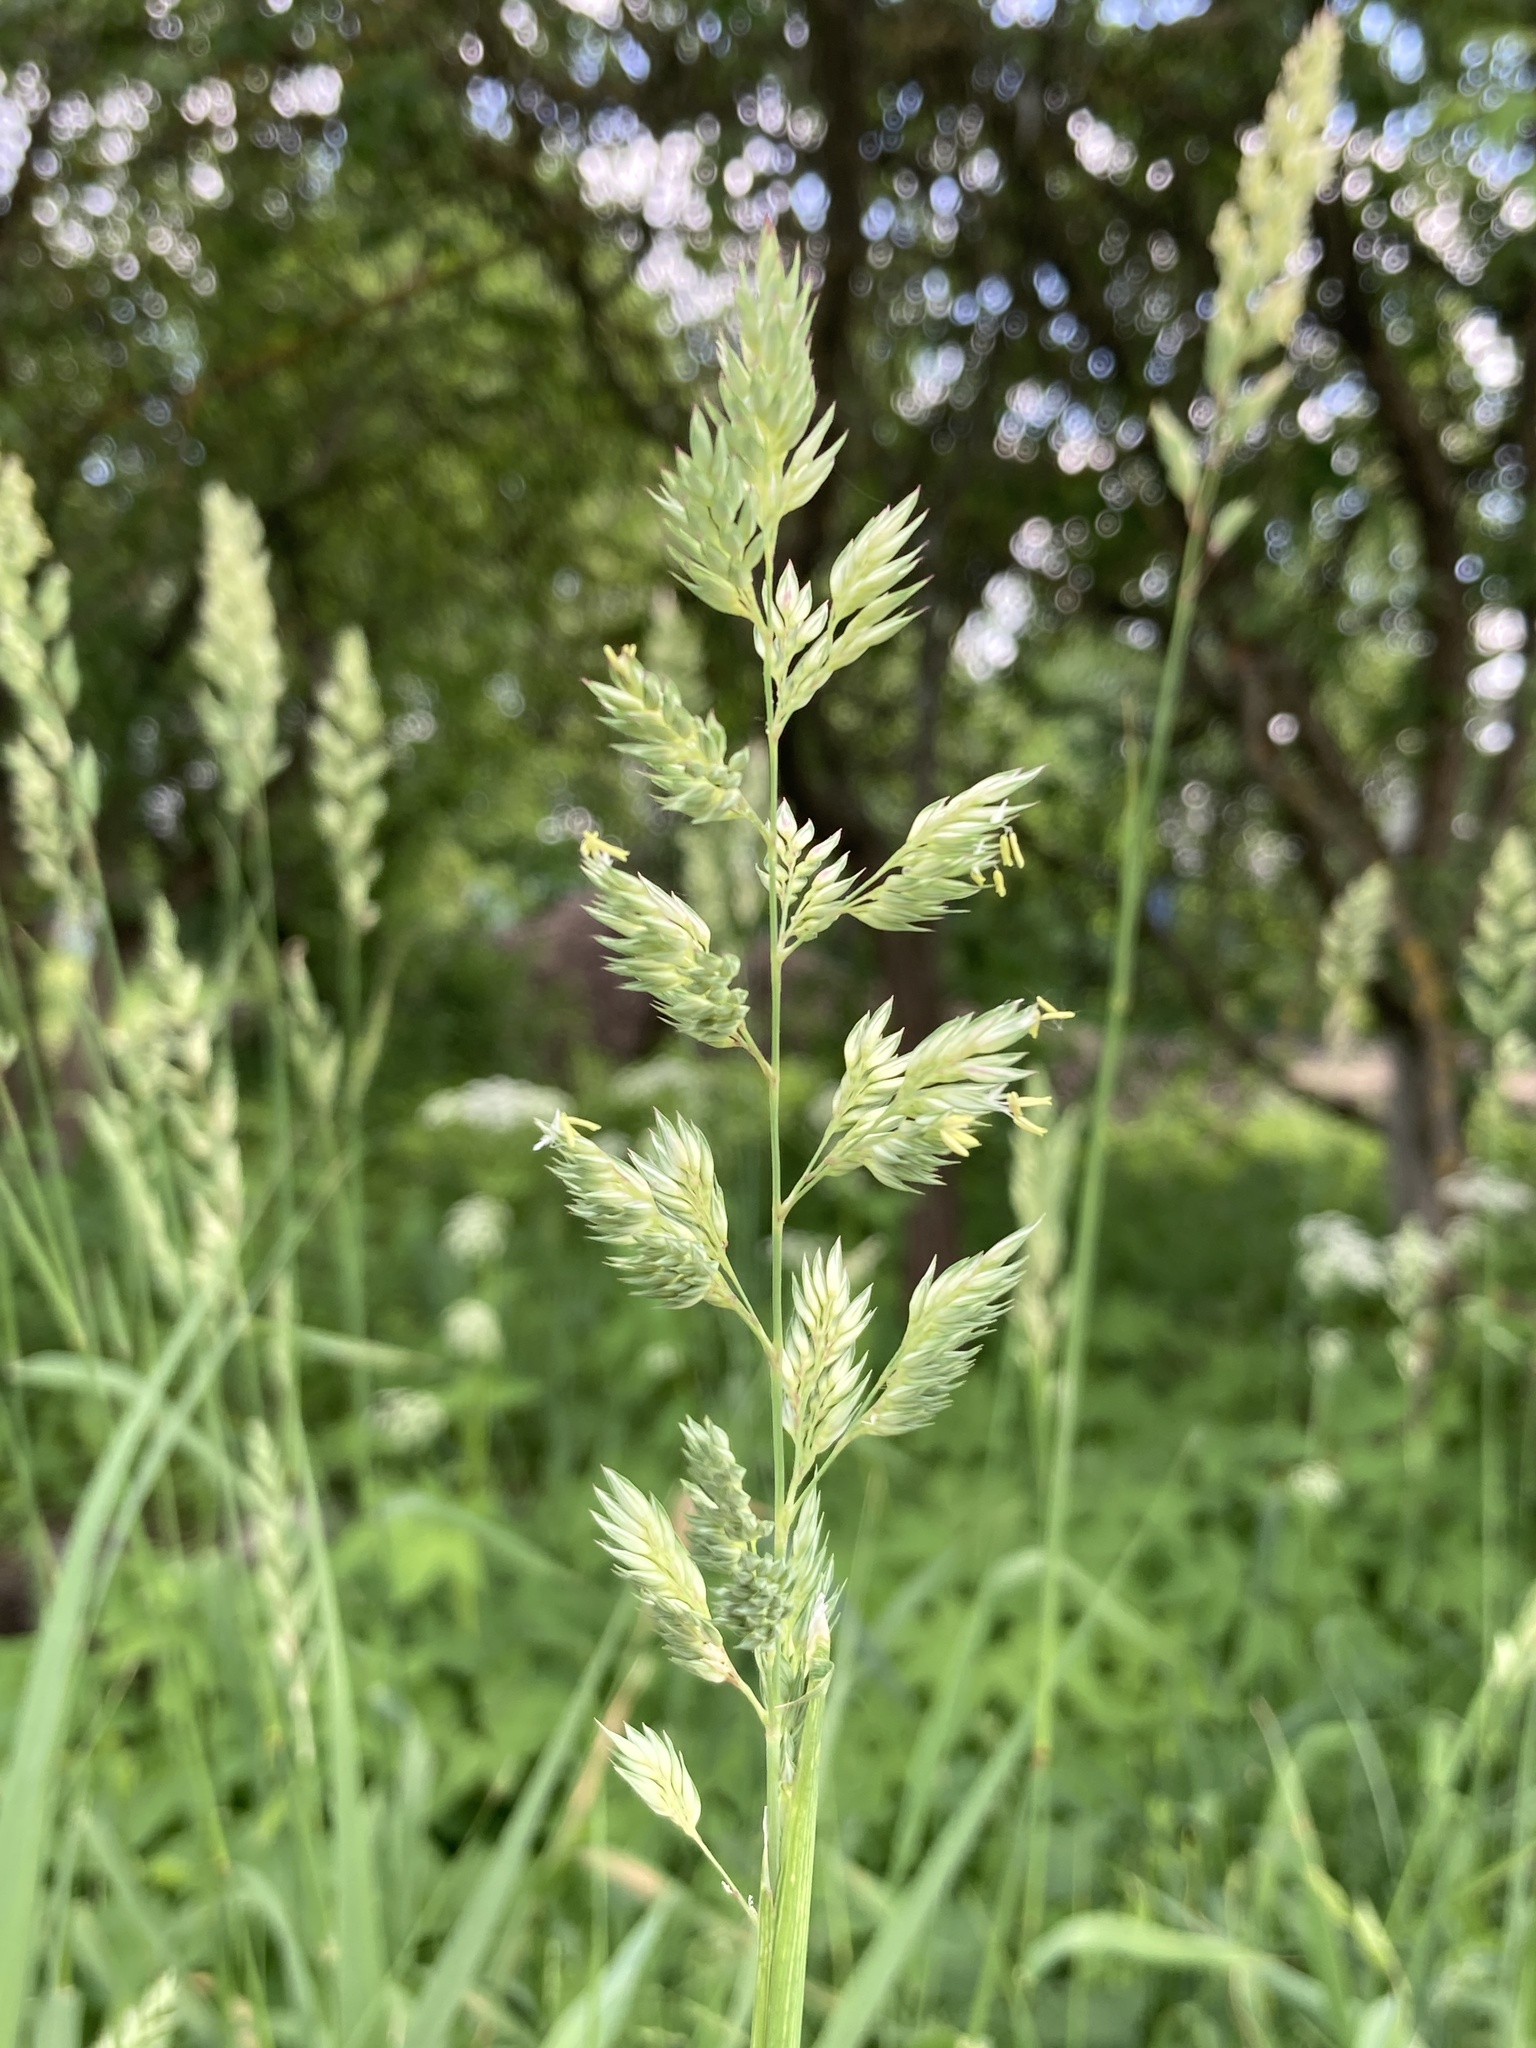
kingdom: Plantae
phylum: Tracheophyta
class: Liliopsida
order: Poales
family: Poaceae
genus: Phalaris
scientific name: Phalaris arundinacea
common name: Reed canary-grass
